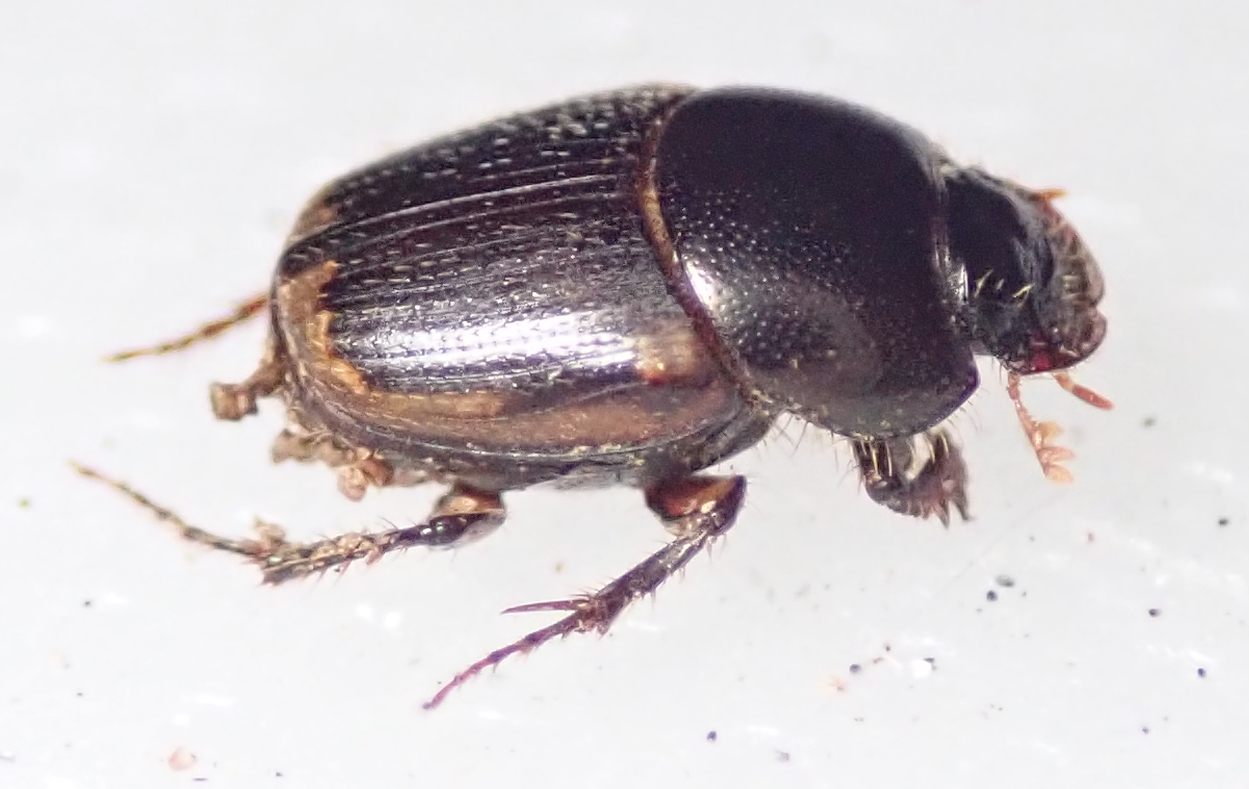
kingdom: Animalia
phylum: Arthropoda
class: Insecta
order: Coleoptera
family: Scarabaeidae
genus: Onthophagus
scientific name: Onthophagus quadrimaculatus
